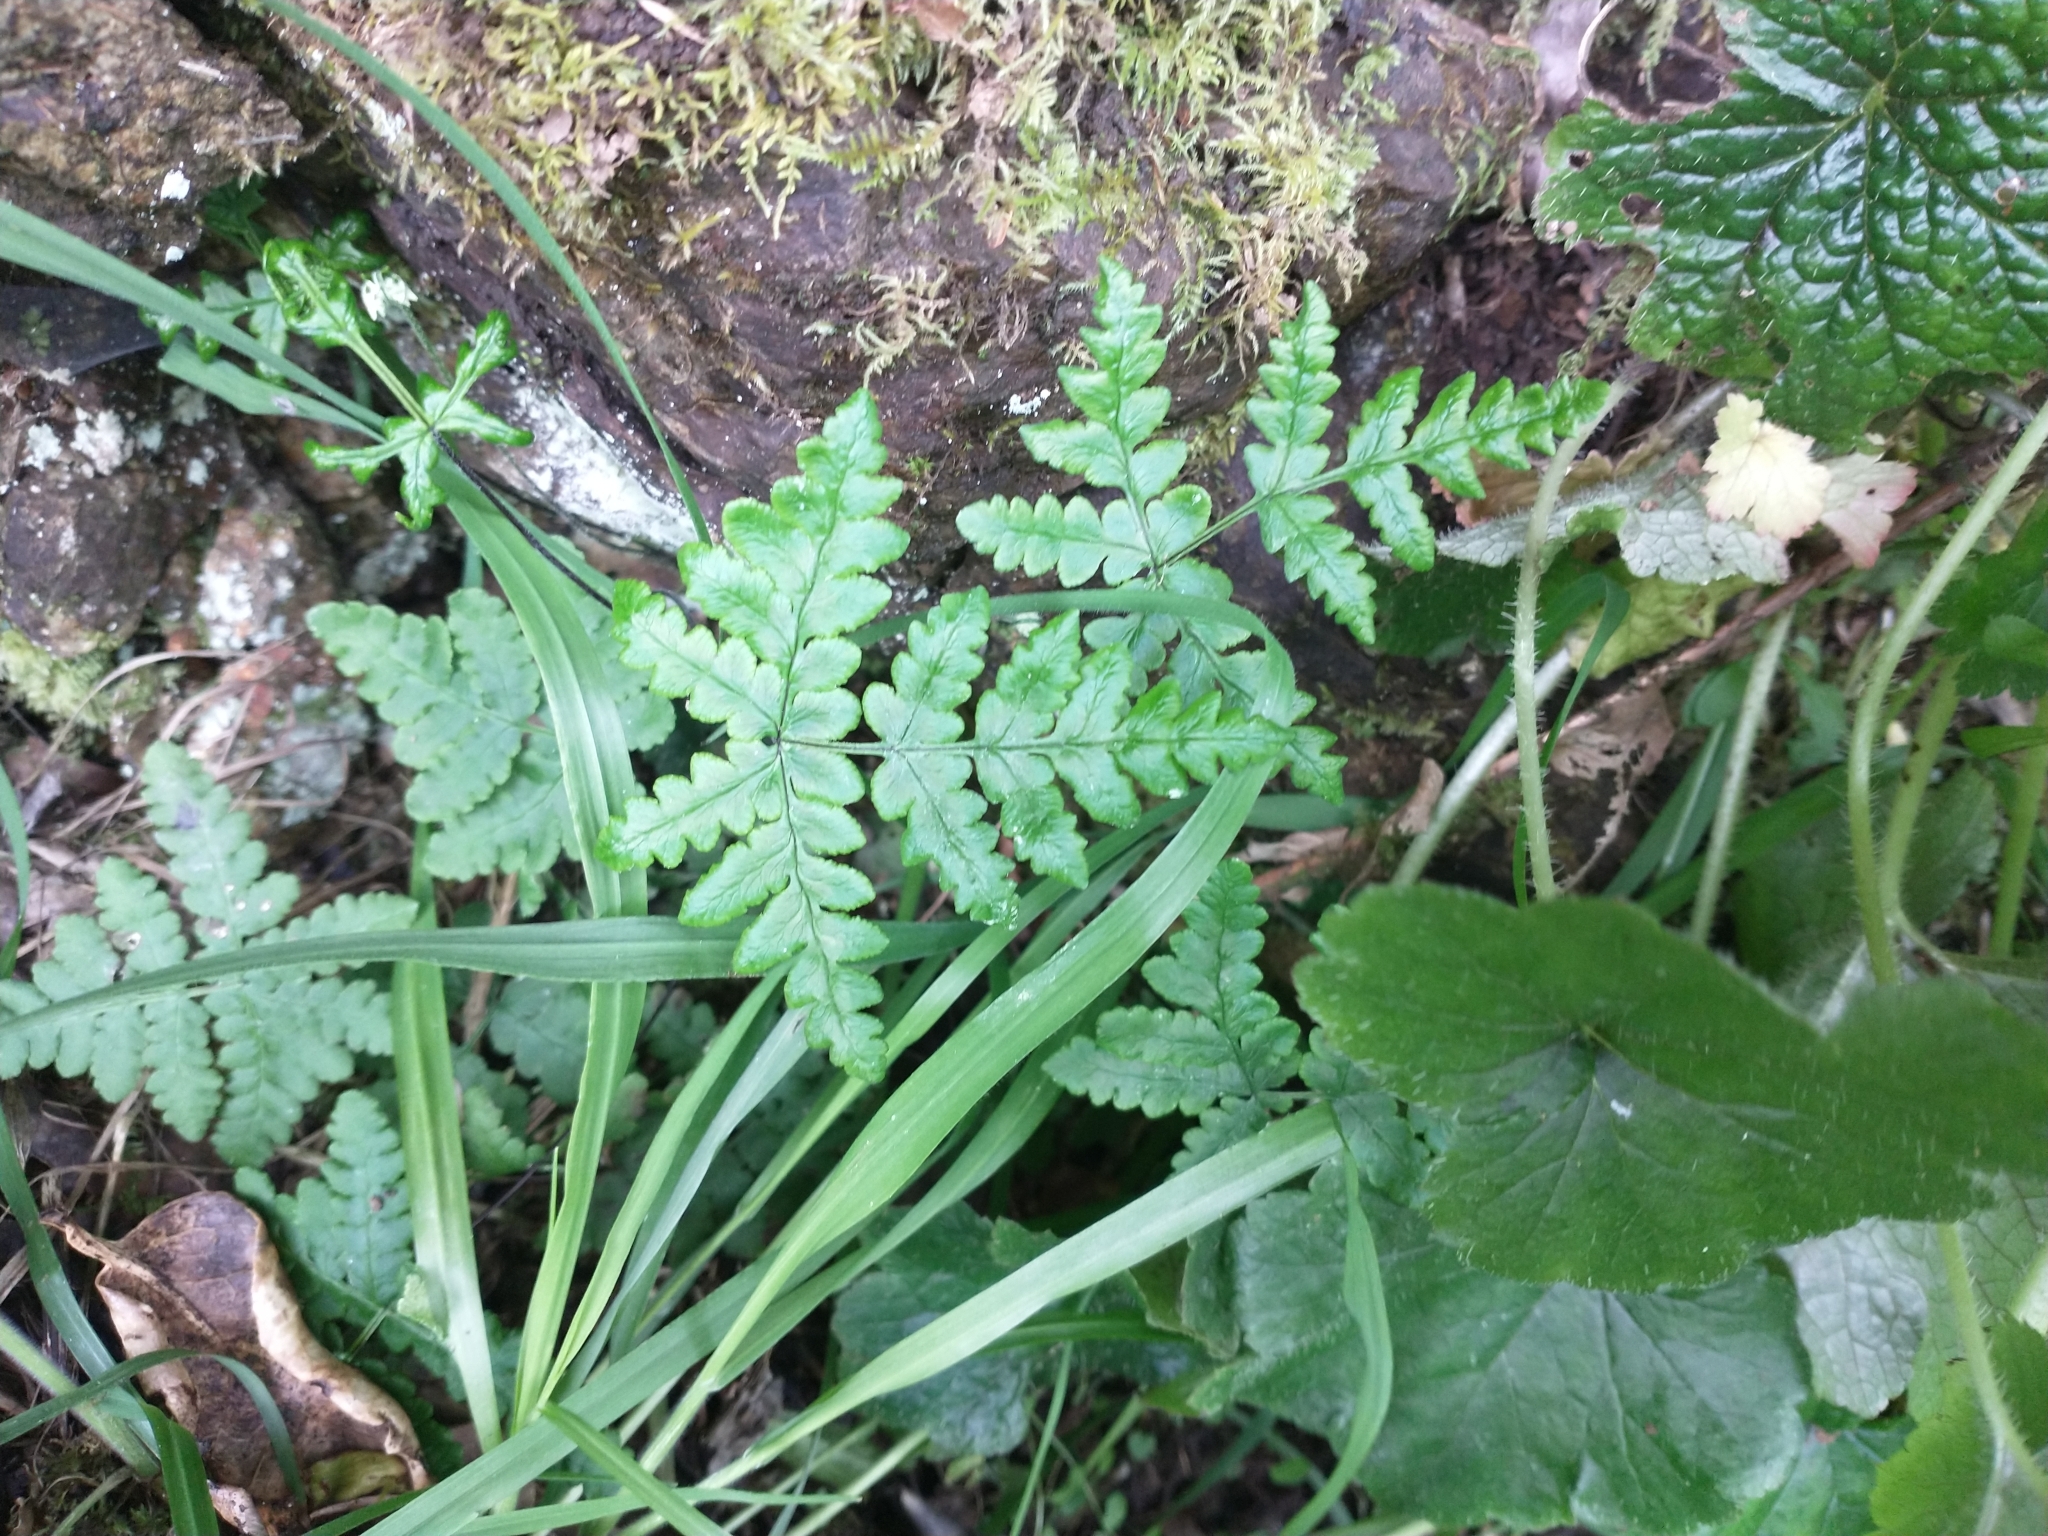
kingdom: Plantae
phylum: Tracheophyta
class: Polypodiopsida
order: Polypodiales
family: Pteridaceae
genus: Pentagramma
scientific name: Pentagramma triangularis
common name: Gold fern
